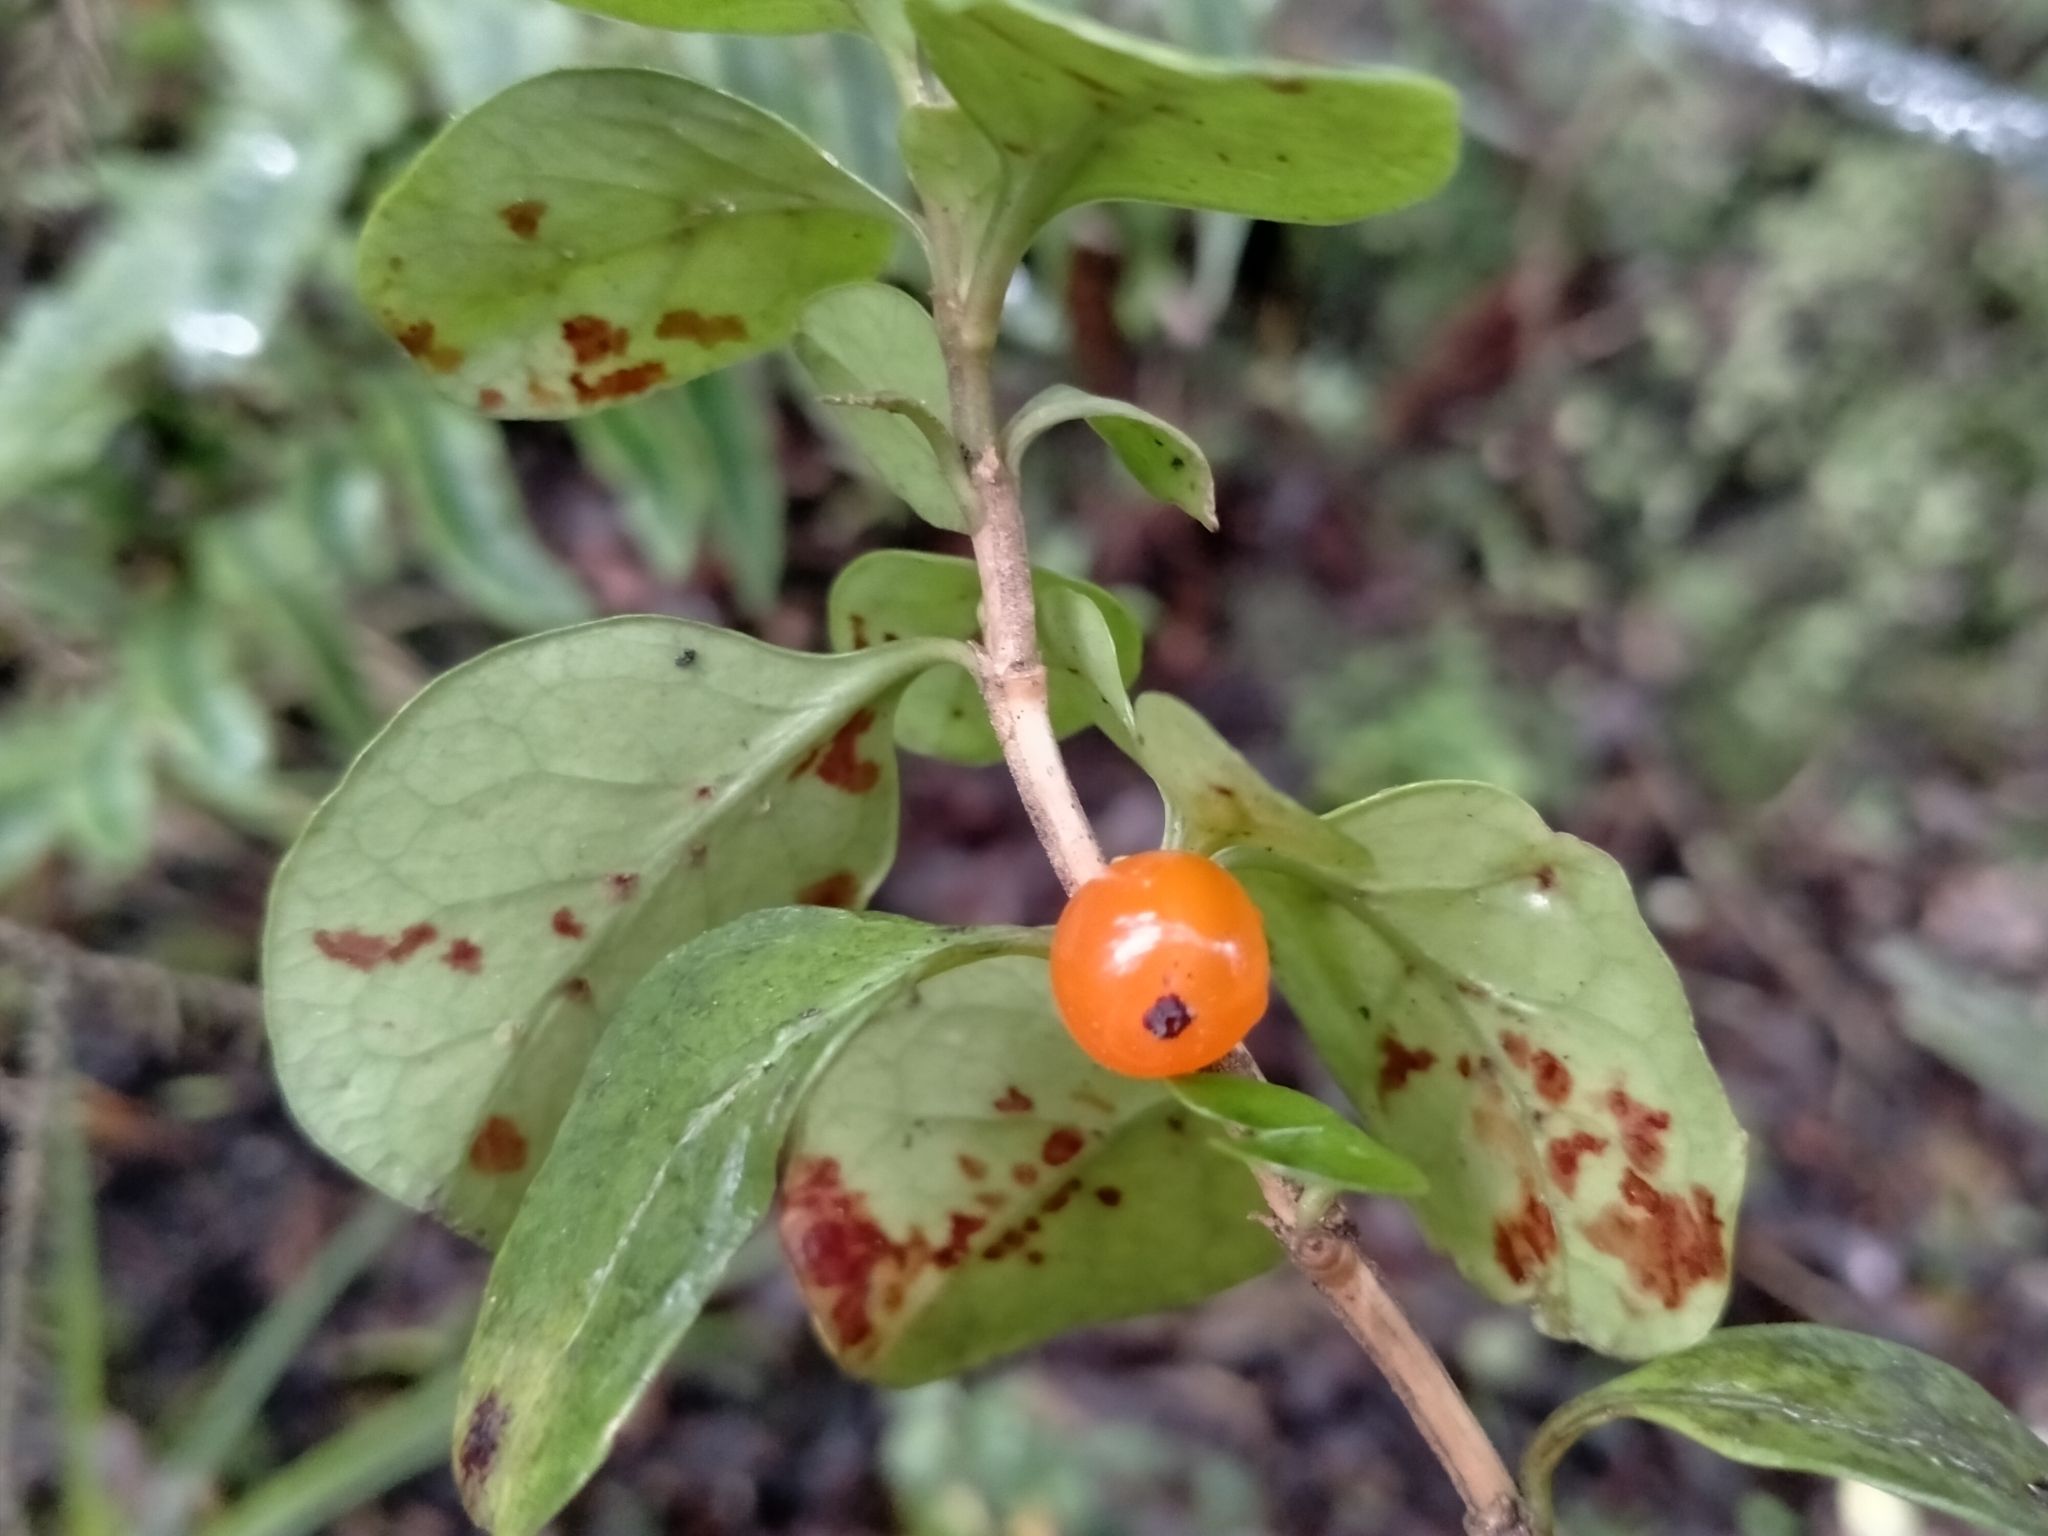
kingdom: Plantae
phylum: Tracheophyta
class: Magnoliopsida
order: Gentianales
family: Rubiaceae
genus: Coprosma
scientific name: Coprosma colensoi
